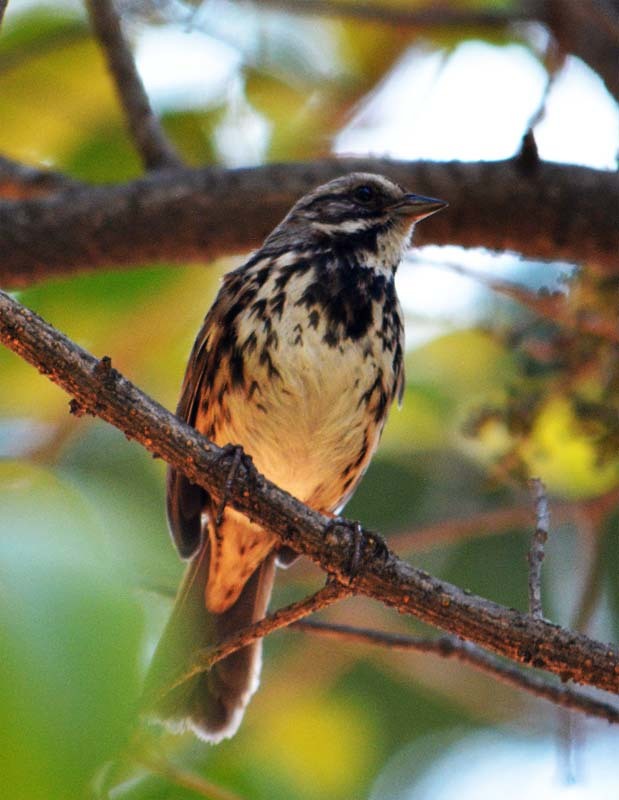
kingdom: Animalia
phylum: Chordata
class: Aves
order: Passeriformes
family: Passerellidae
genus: Melospiza
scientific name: Melospiza melodia
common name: Song sparrow
